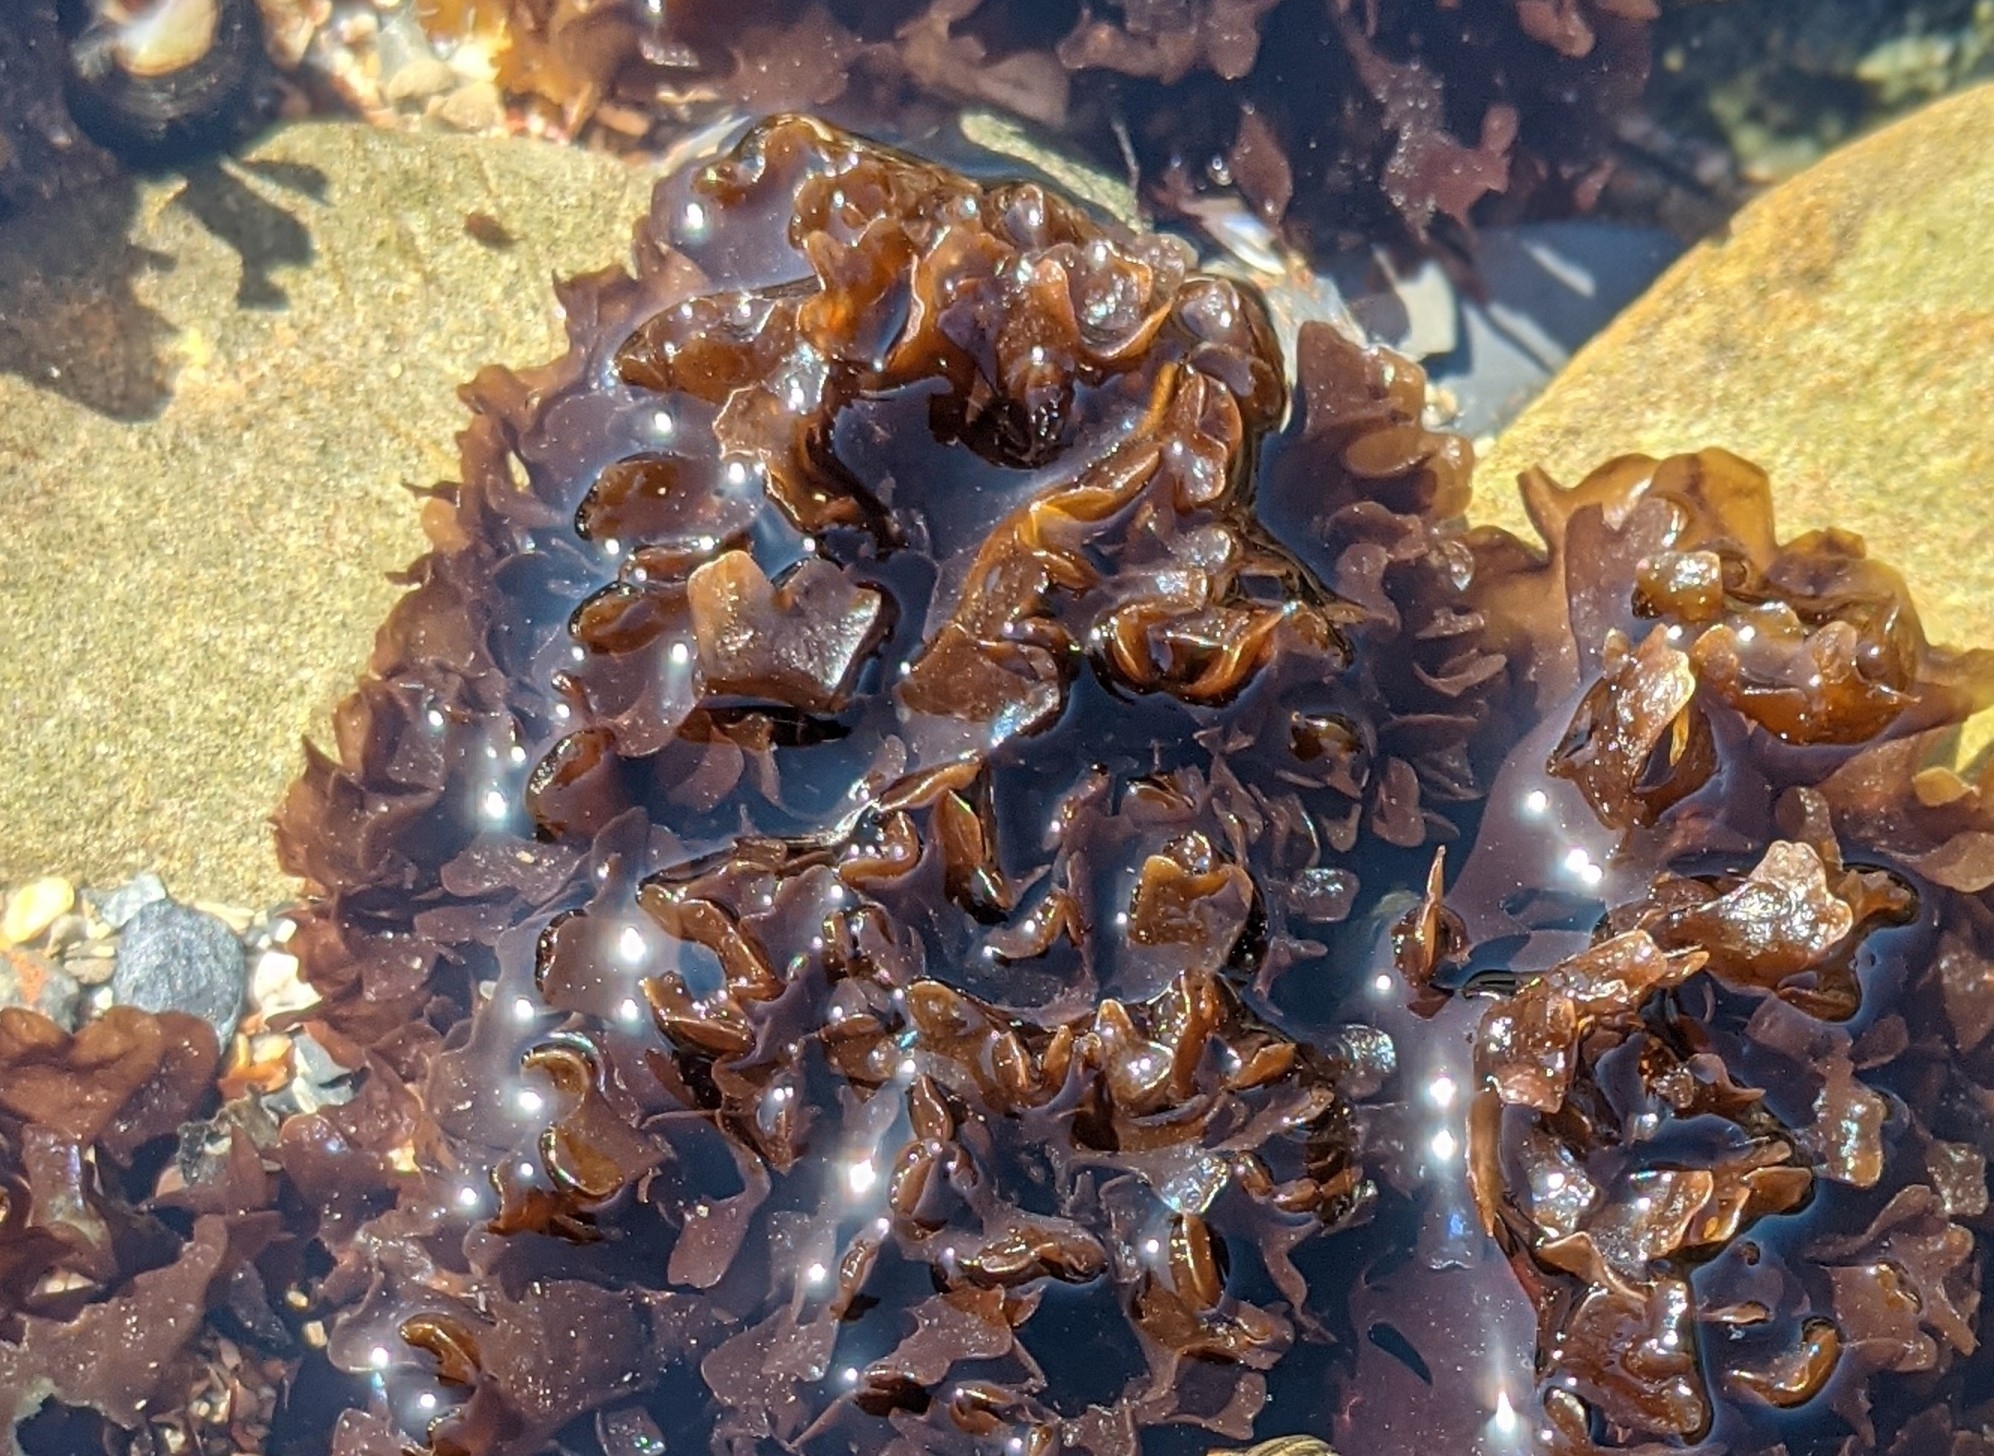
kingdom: Plantae
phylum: Rhodophyta
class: Florideophyceae
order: Gigartinales
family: Gigartinaceae
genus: Chondrus
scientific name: Chondrus crispus
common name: Carrageen
